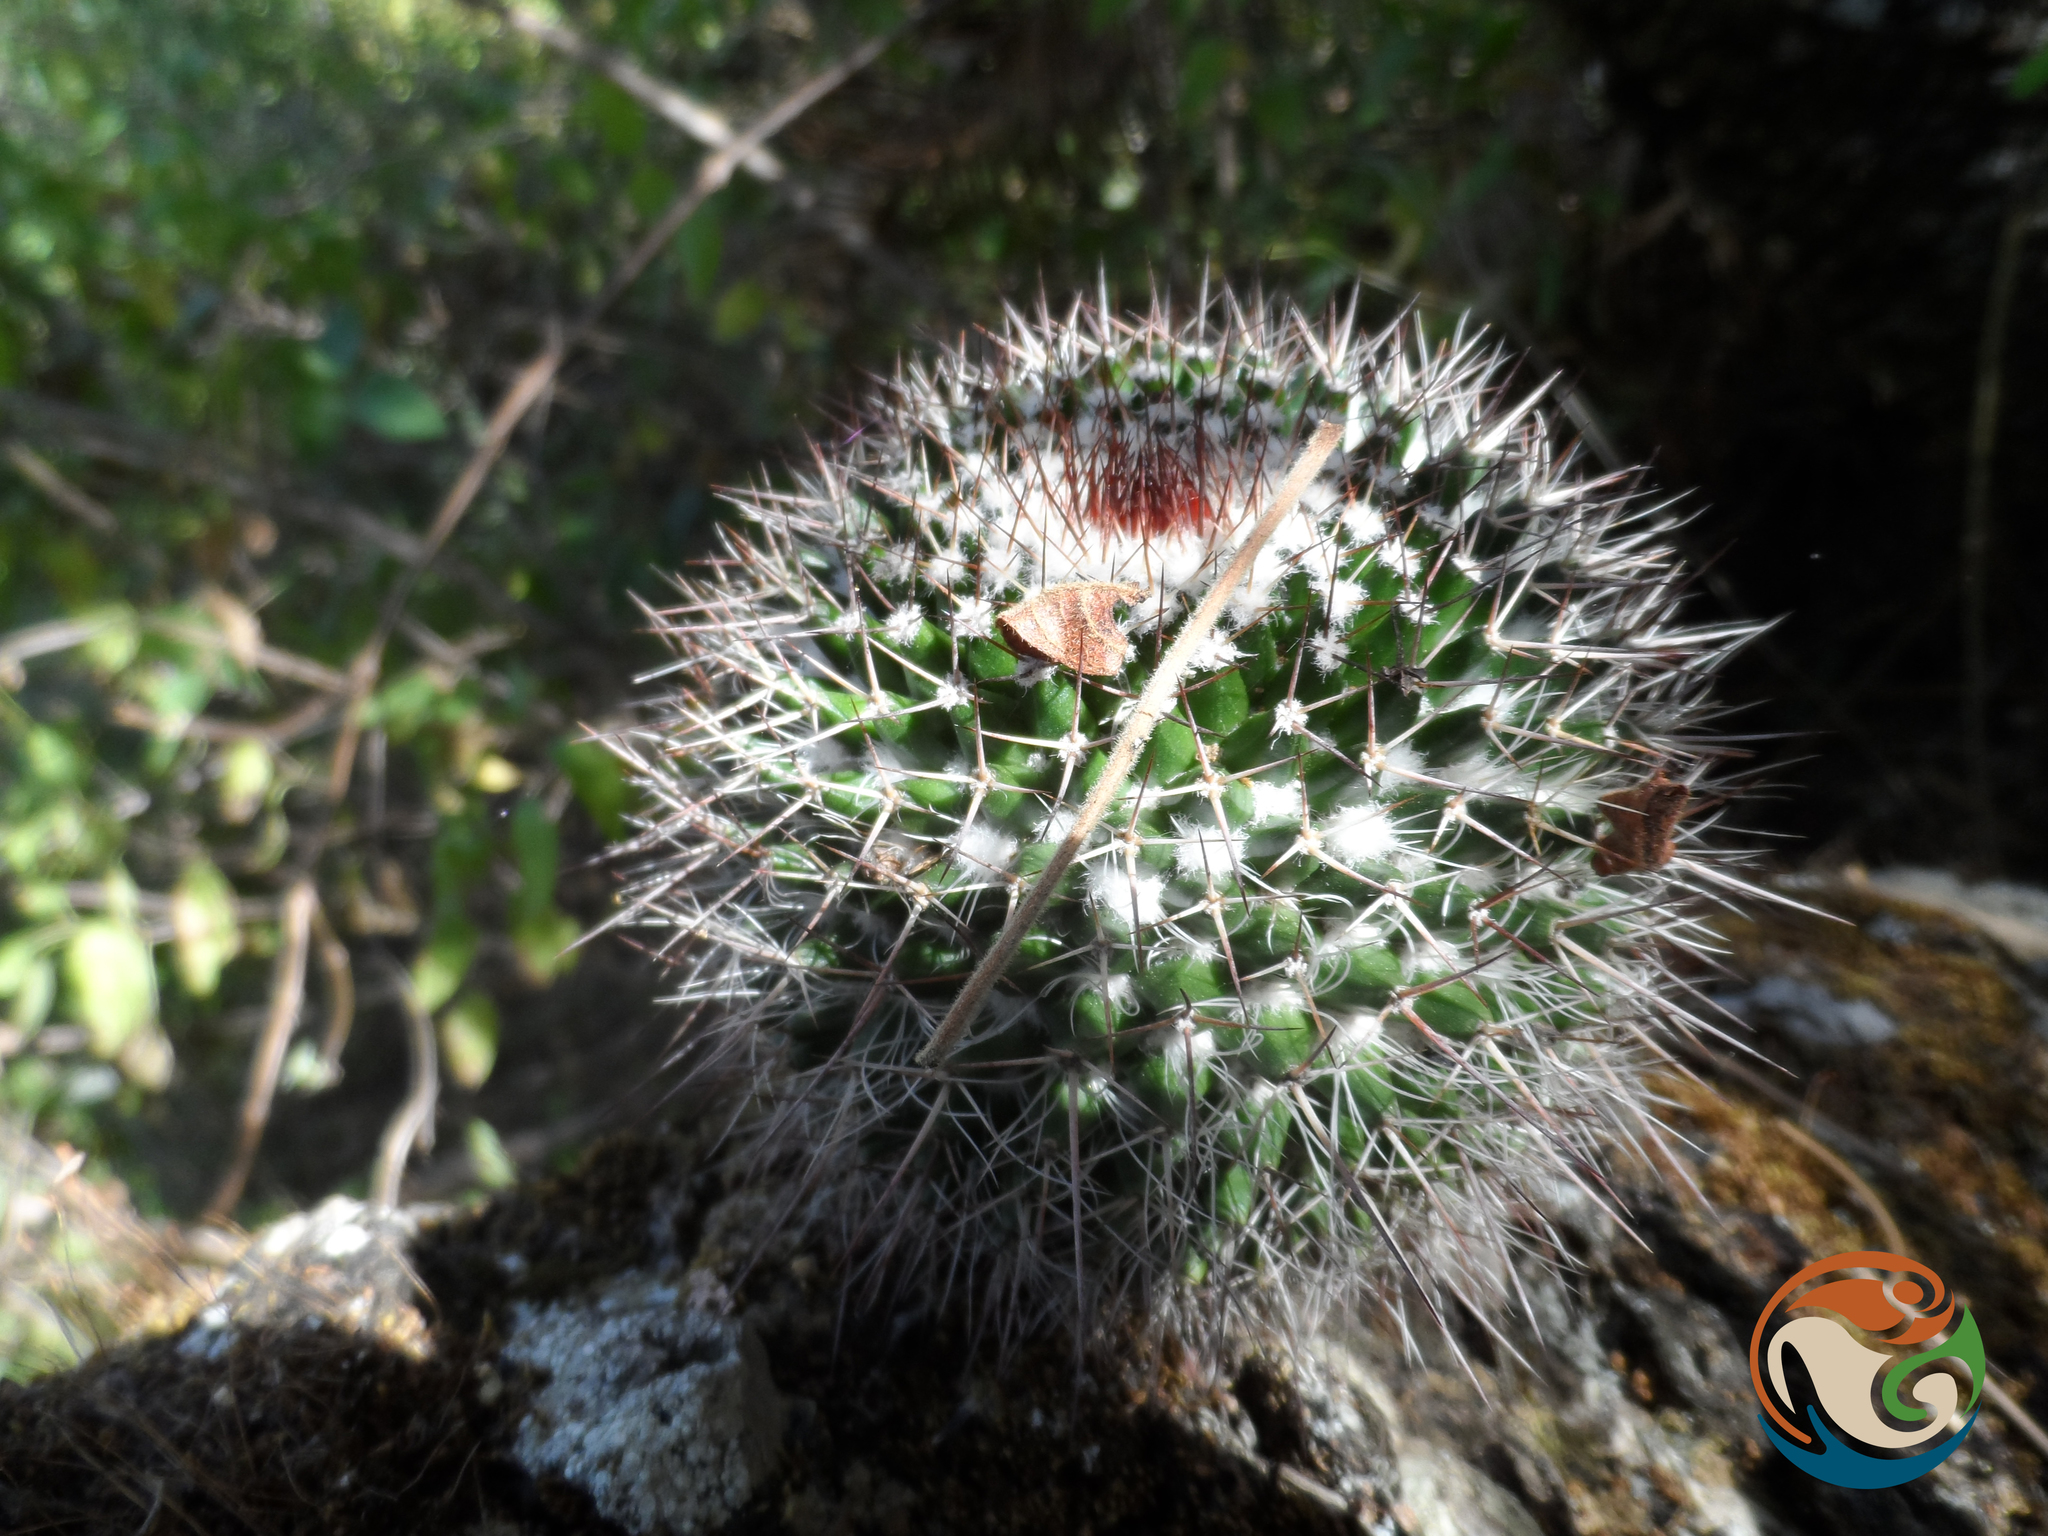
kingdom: Plantae
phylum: Tracheophyta
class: Magnoliopsida
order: Caryophyllales
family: Cactaceae
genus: Mammillaria
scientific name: Mammillaria polyedra
